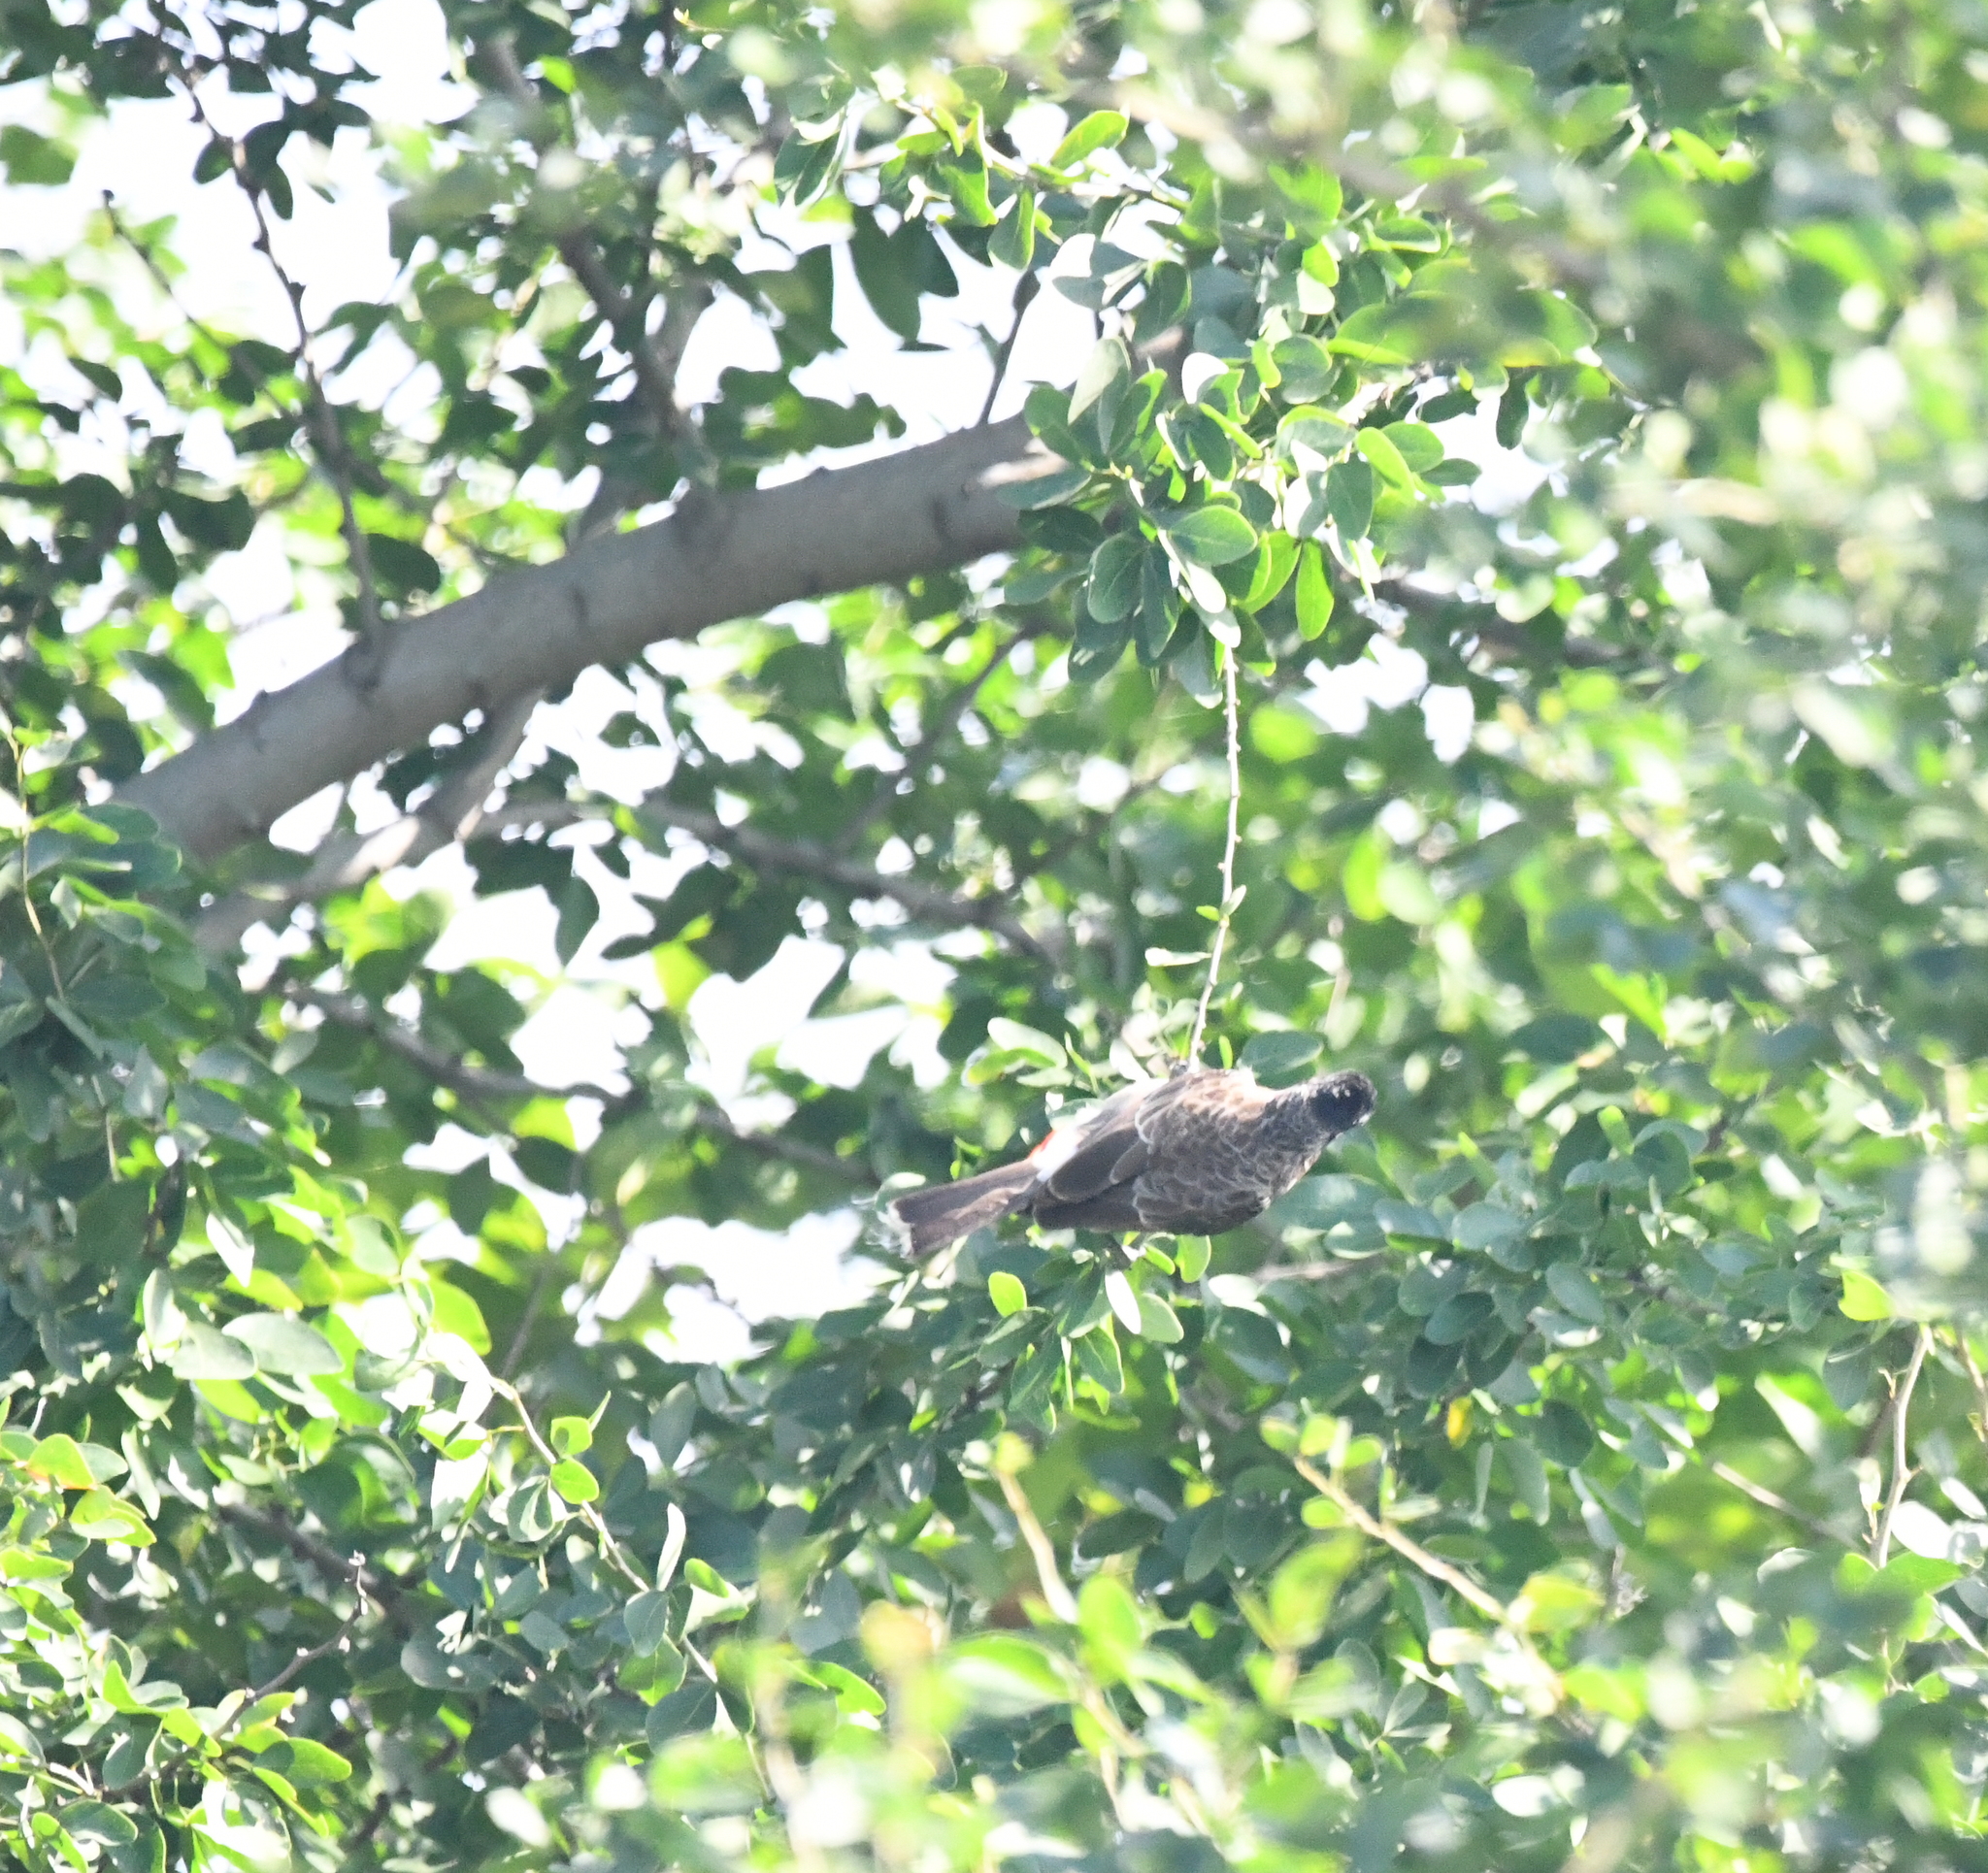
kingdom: Animalia
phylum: Chordata
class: Aves
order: Passeriformes
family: Pycnonotidae
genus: Pycnonotus
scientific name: Pycnonotus cafer
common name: Red-vented bulbul
